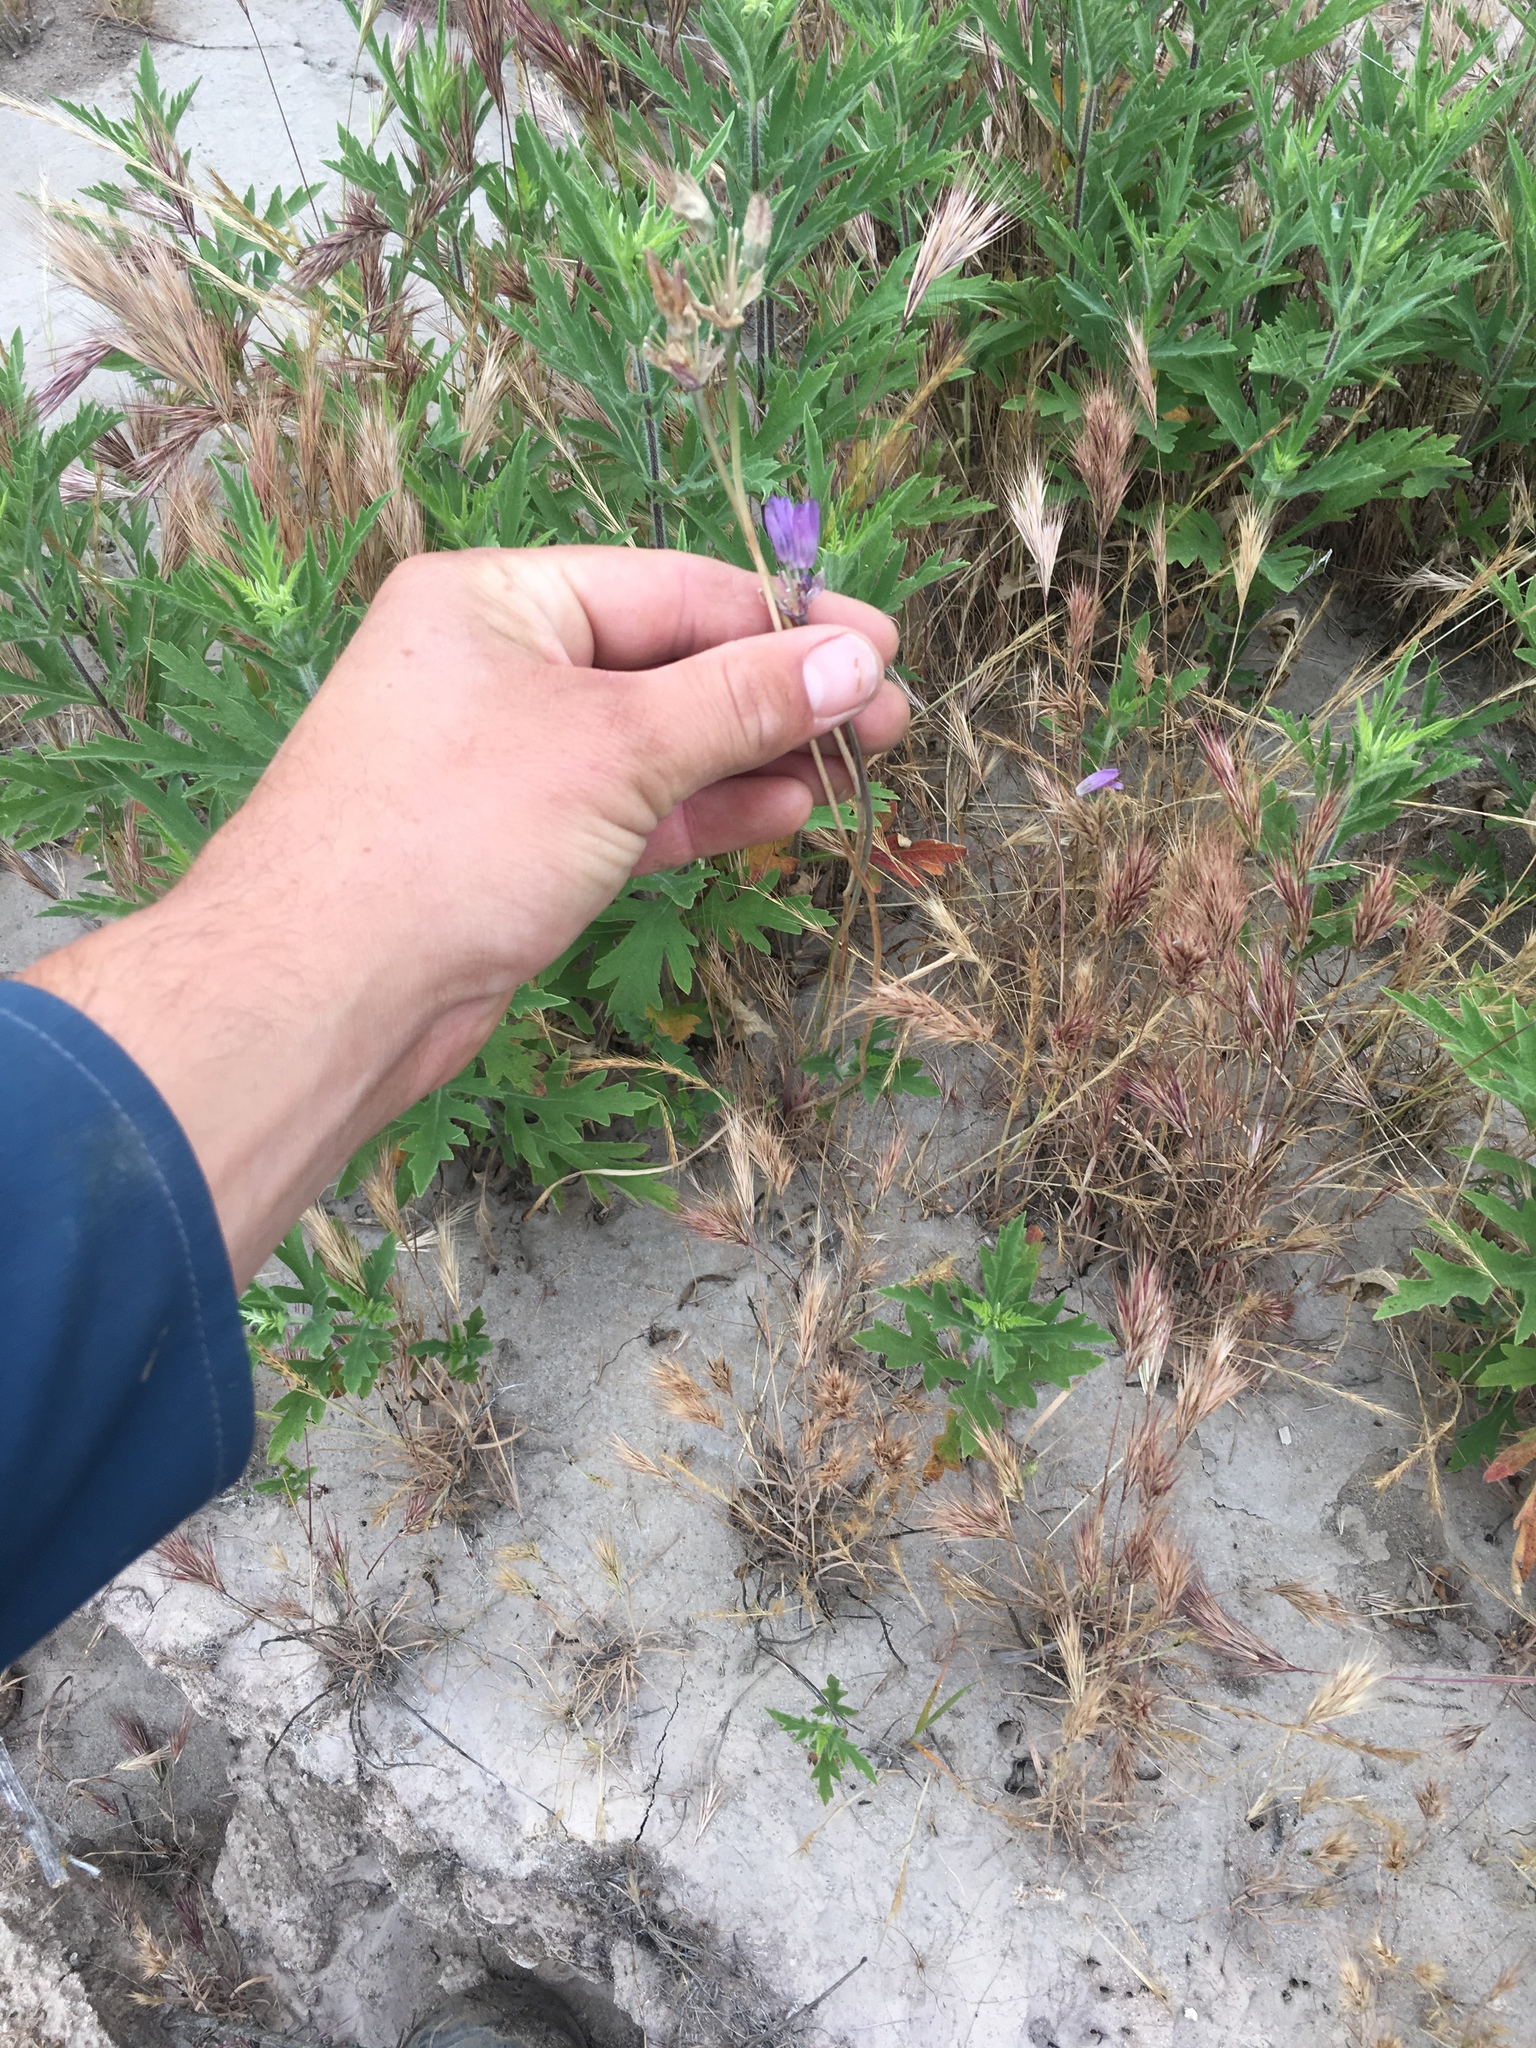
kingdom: Plantae
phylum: Tracheophyta
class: Liliopsida
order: Asparagales
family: Asparagaceae
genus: Dipterostemon
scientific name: Dipterostemon capitatus
